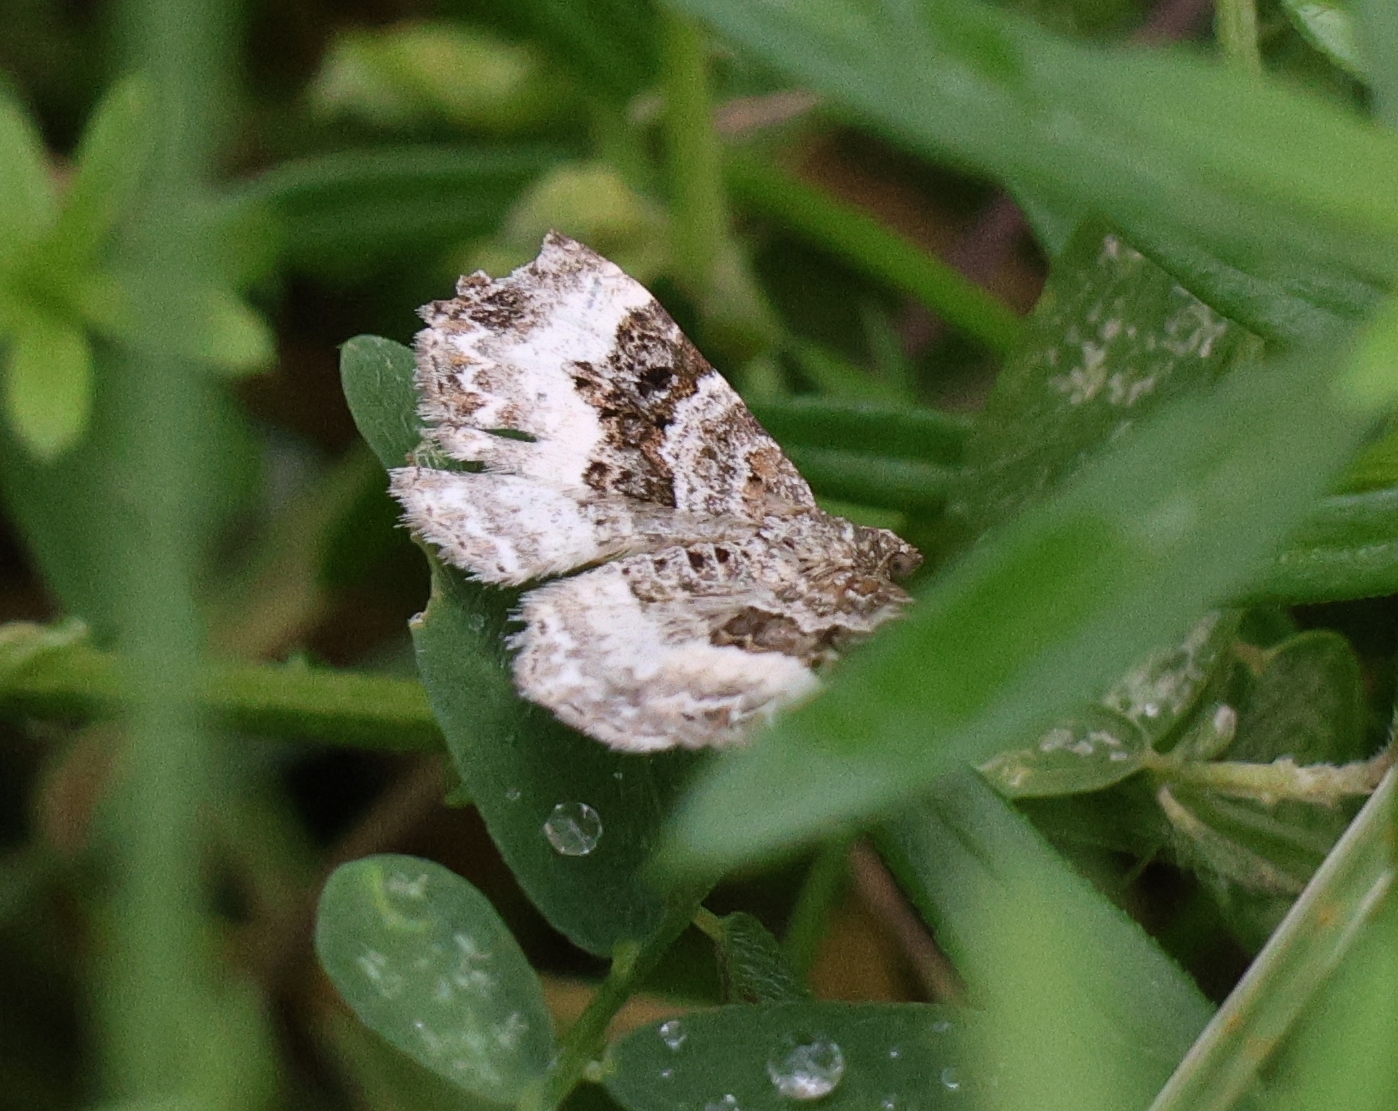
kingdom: Animalia
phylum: Arthropoda
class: Insecta
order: Lepidoptera
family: Geometridae
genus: Epirrhoe
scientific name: Epirrhoe alternata
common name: Common carpet
